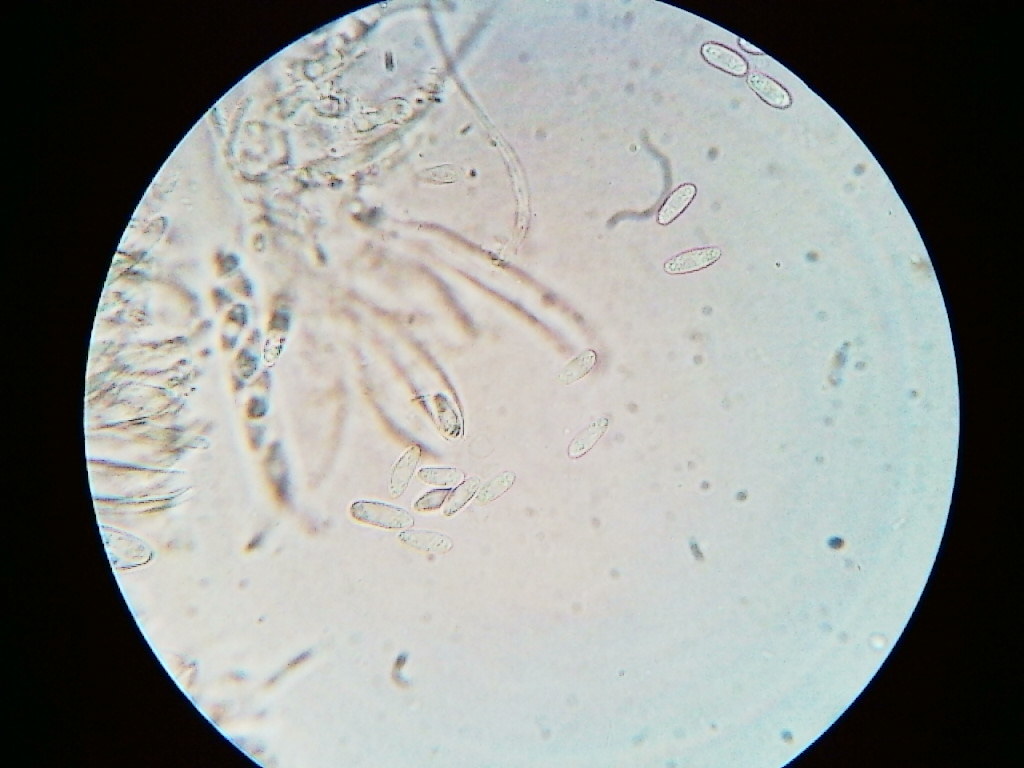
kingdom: Fungi
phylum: Ascomycota
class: Leotiomycetes
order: Helotiales
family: Lachnaceae
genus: Lachnum
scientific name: Lachnum virgineum
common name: Snowy disco
